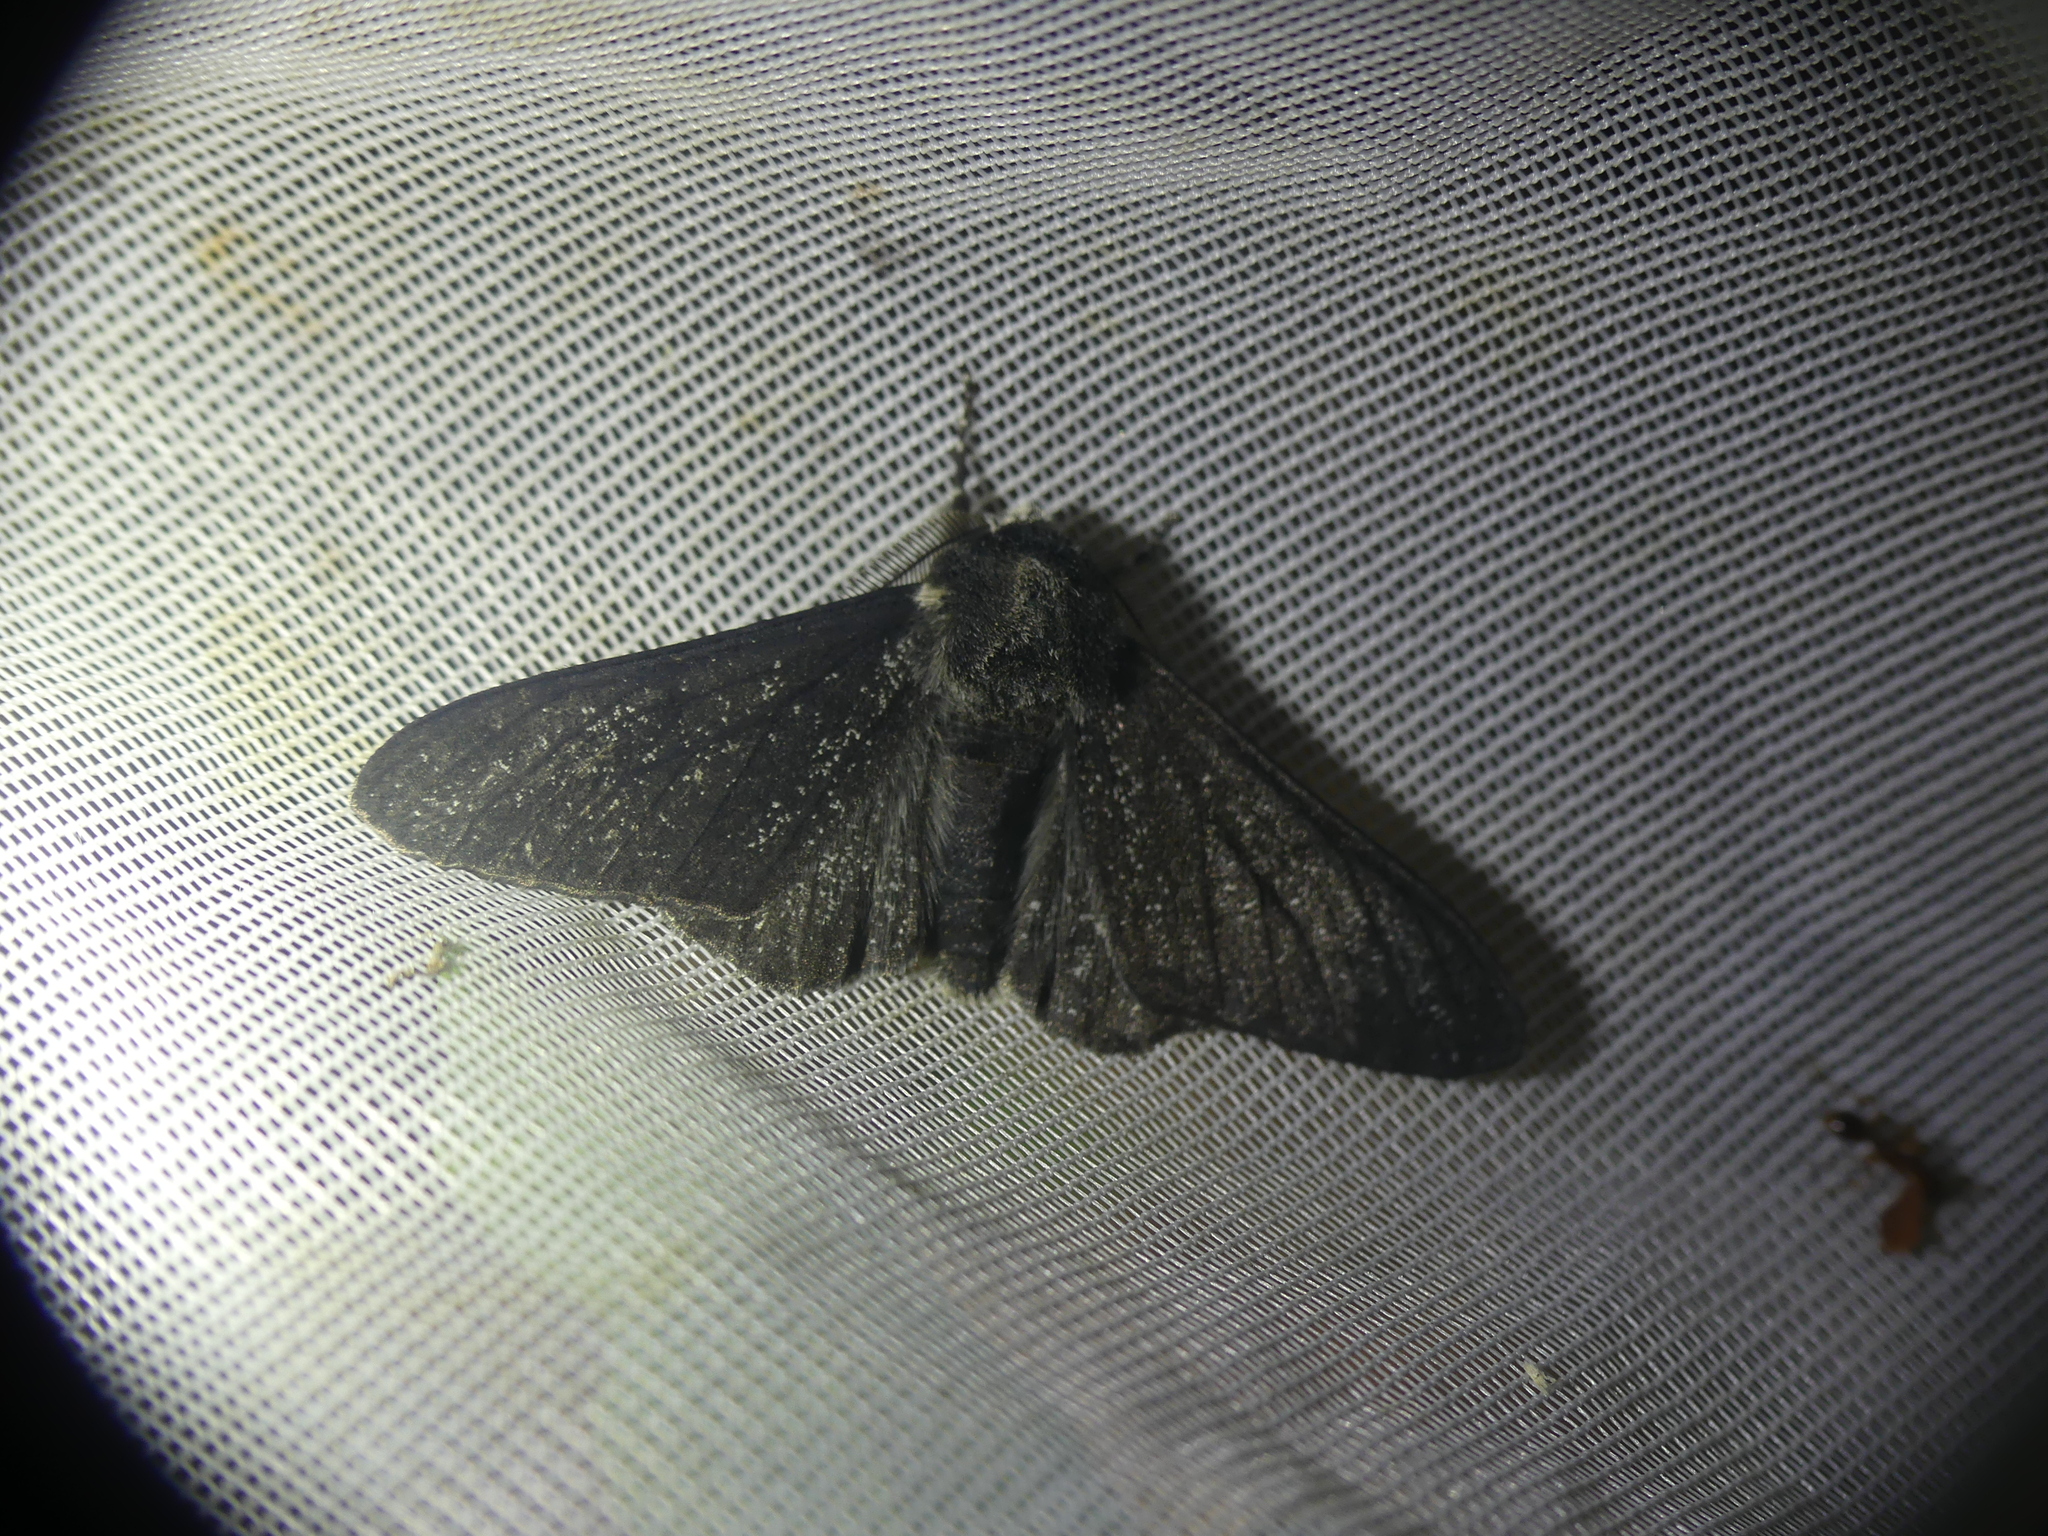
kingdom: Animalia
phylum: Arthropoda
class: Insecta
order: Lepidoptera
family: Geometridae
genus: Biston
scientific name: Biston betularia
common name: Peppered moth
